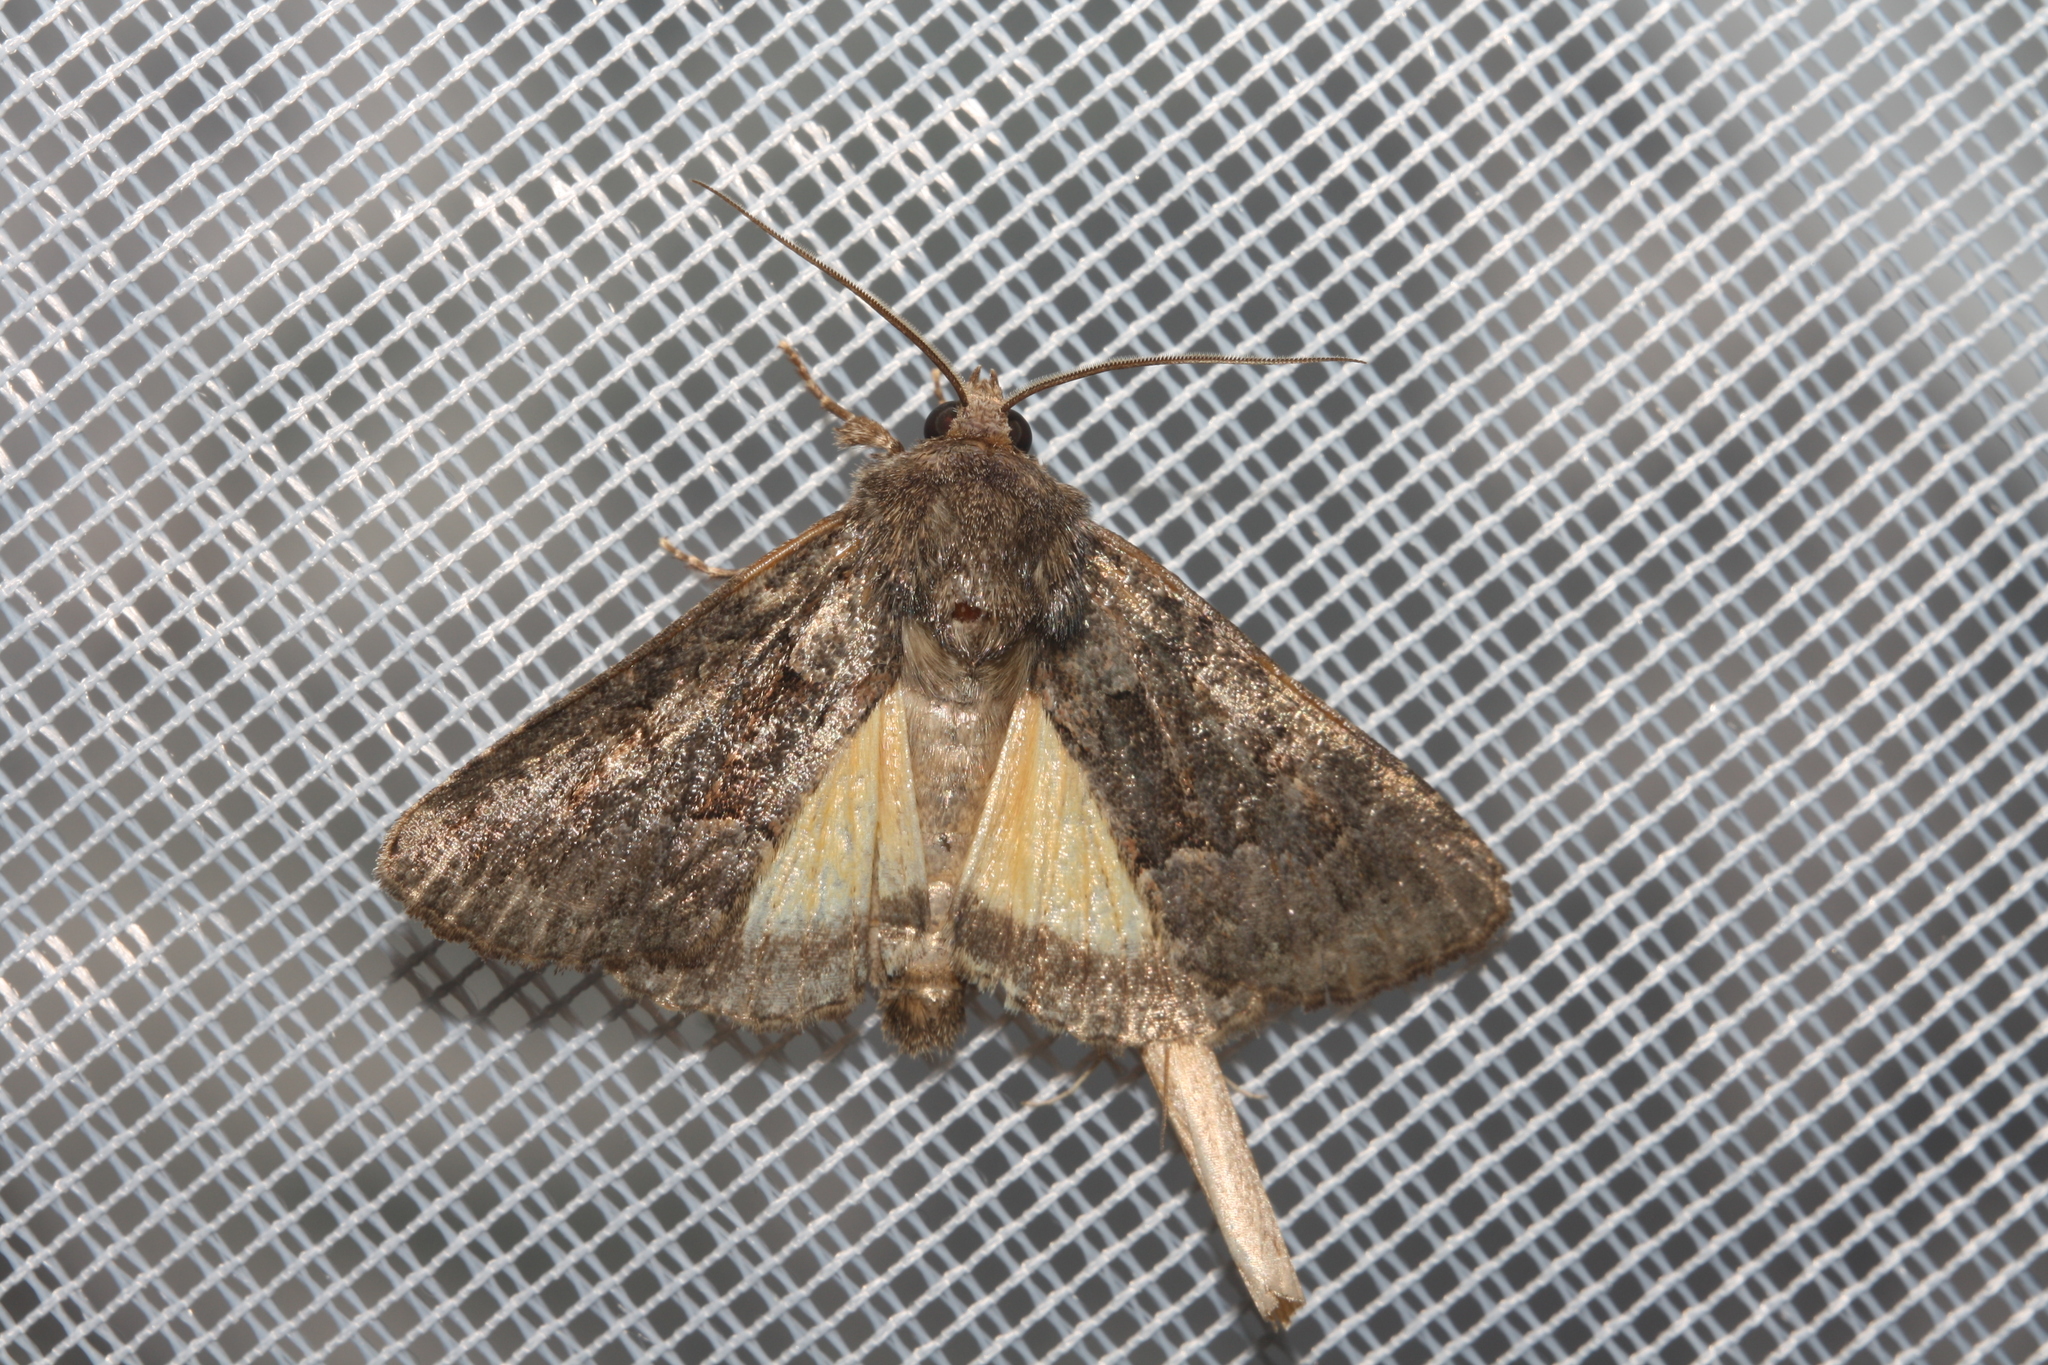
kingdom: Animalia
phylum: Arthropoda
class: Insecta
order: Lepidoptera
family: Noctuidae
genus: Thalpophila
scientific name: Thalpophila matura
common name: Straw underwing
